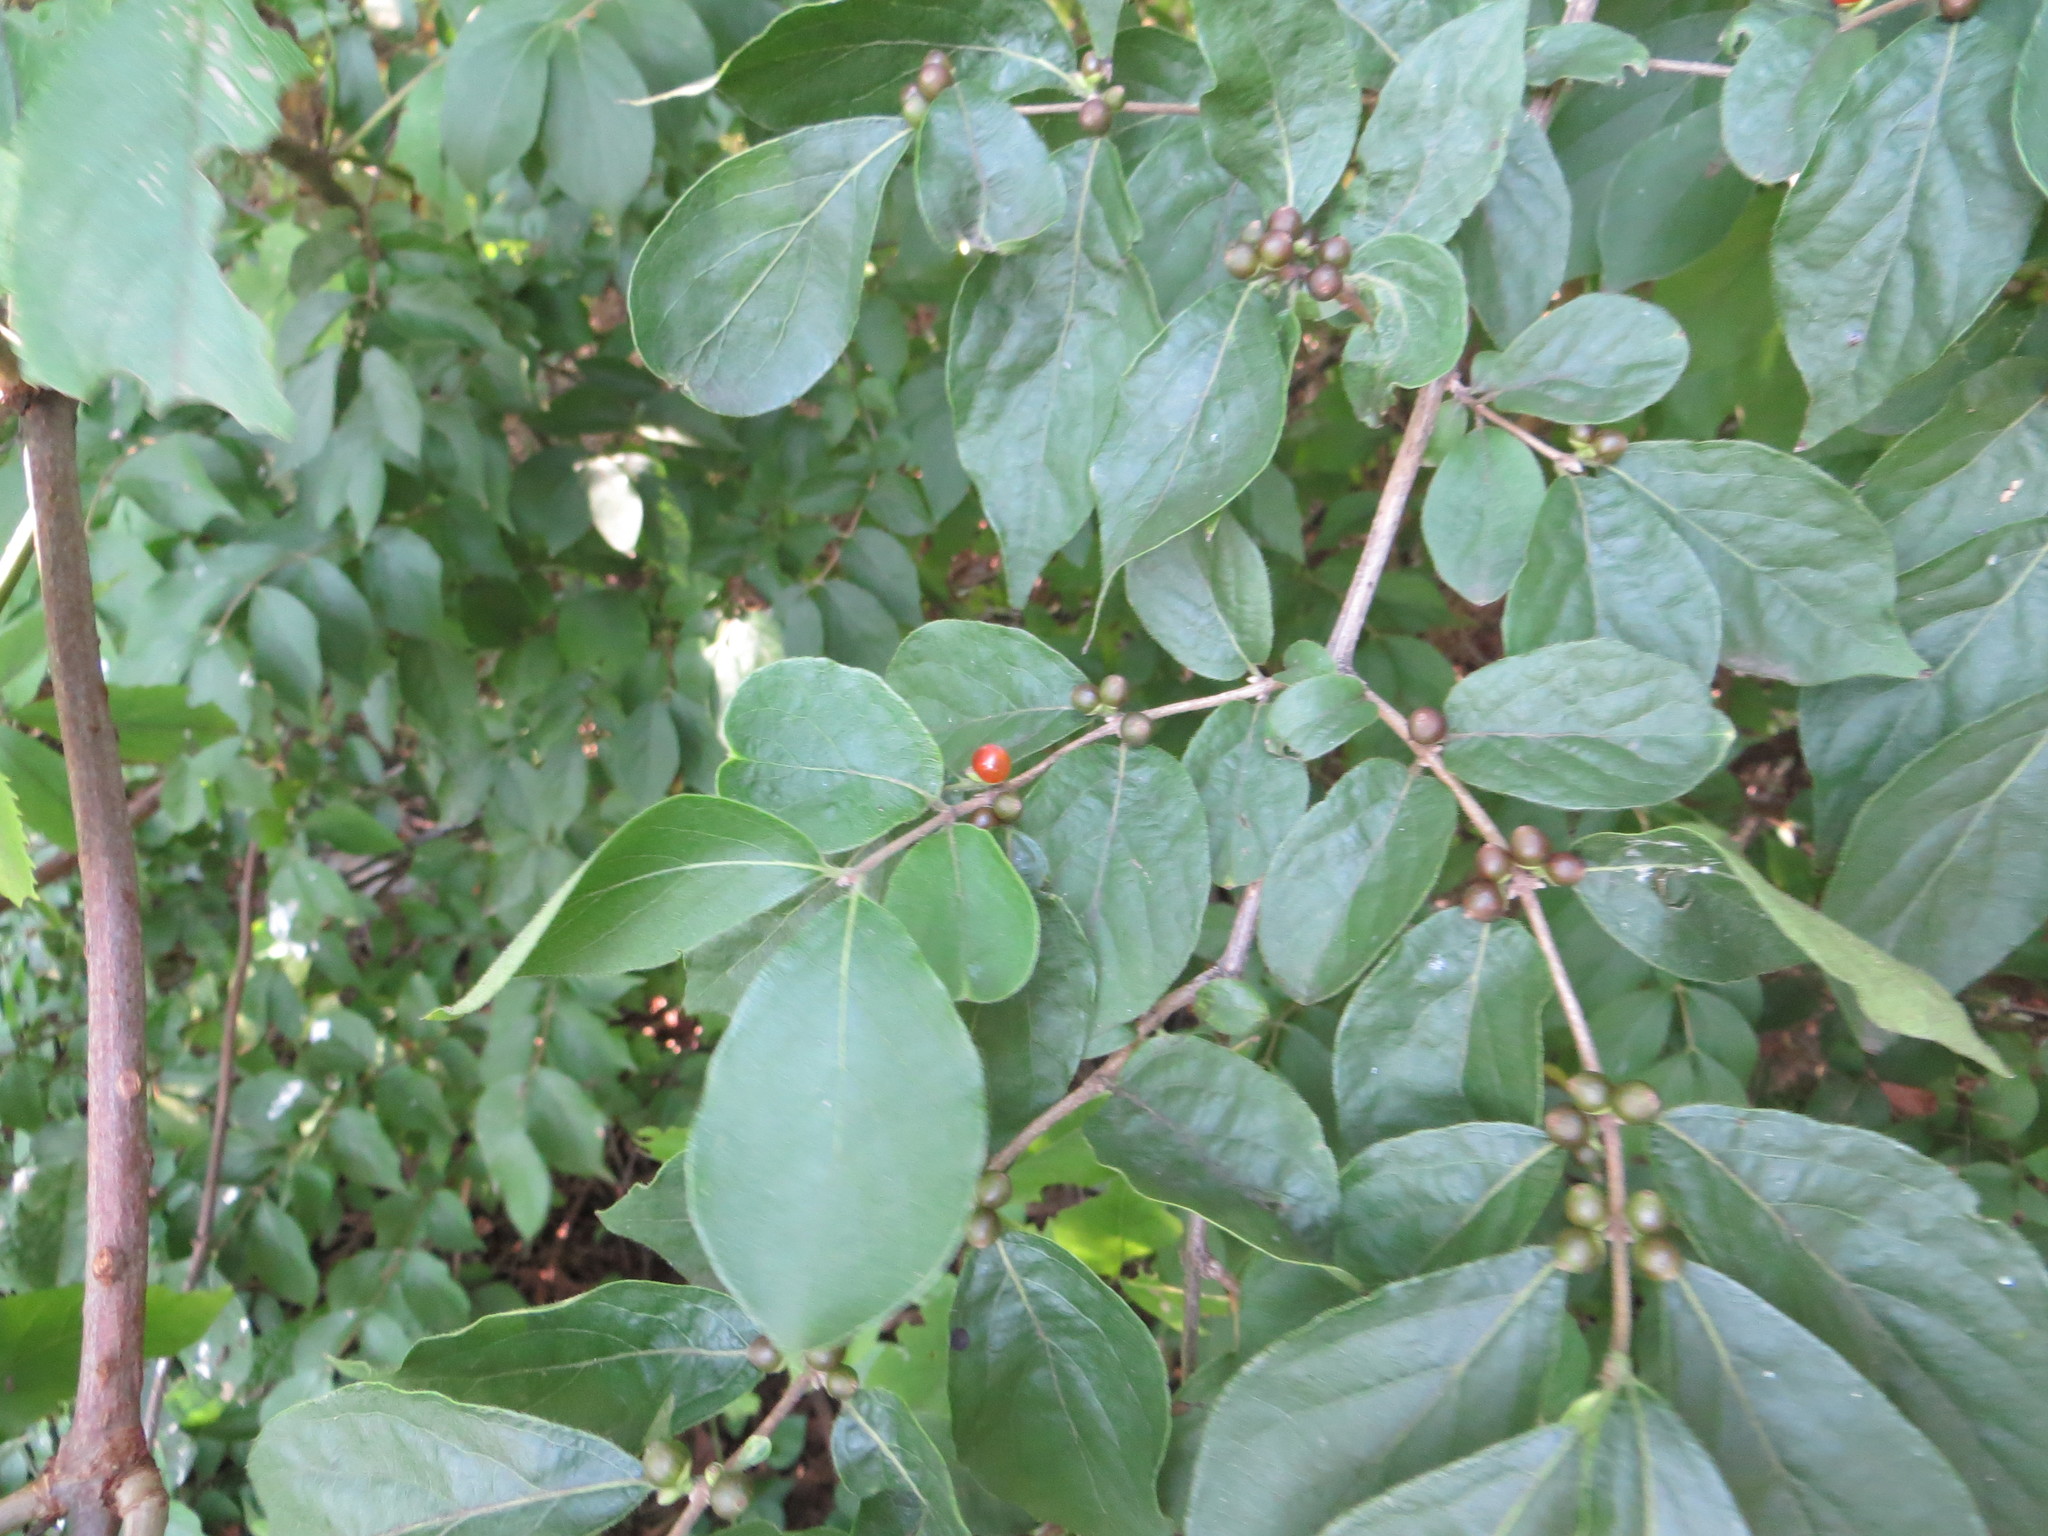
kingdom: Plantae
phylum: Tracheophyta
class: Magnoliopsida
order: Dipsacales
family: Caprifoliaceae
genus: Lonicera
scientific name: Lonicera maackii
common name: Amur honeysuckle
